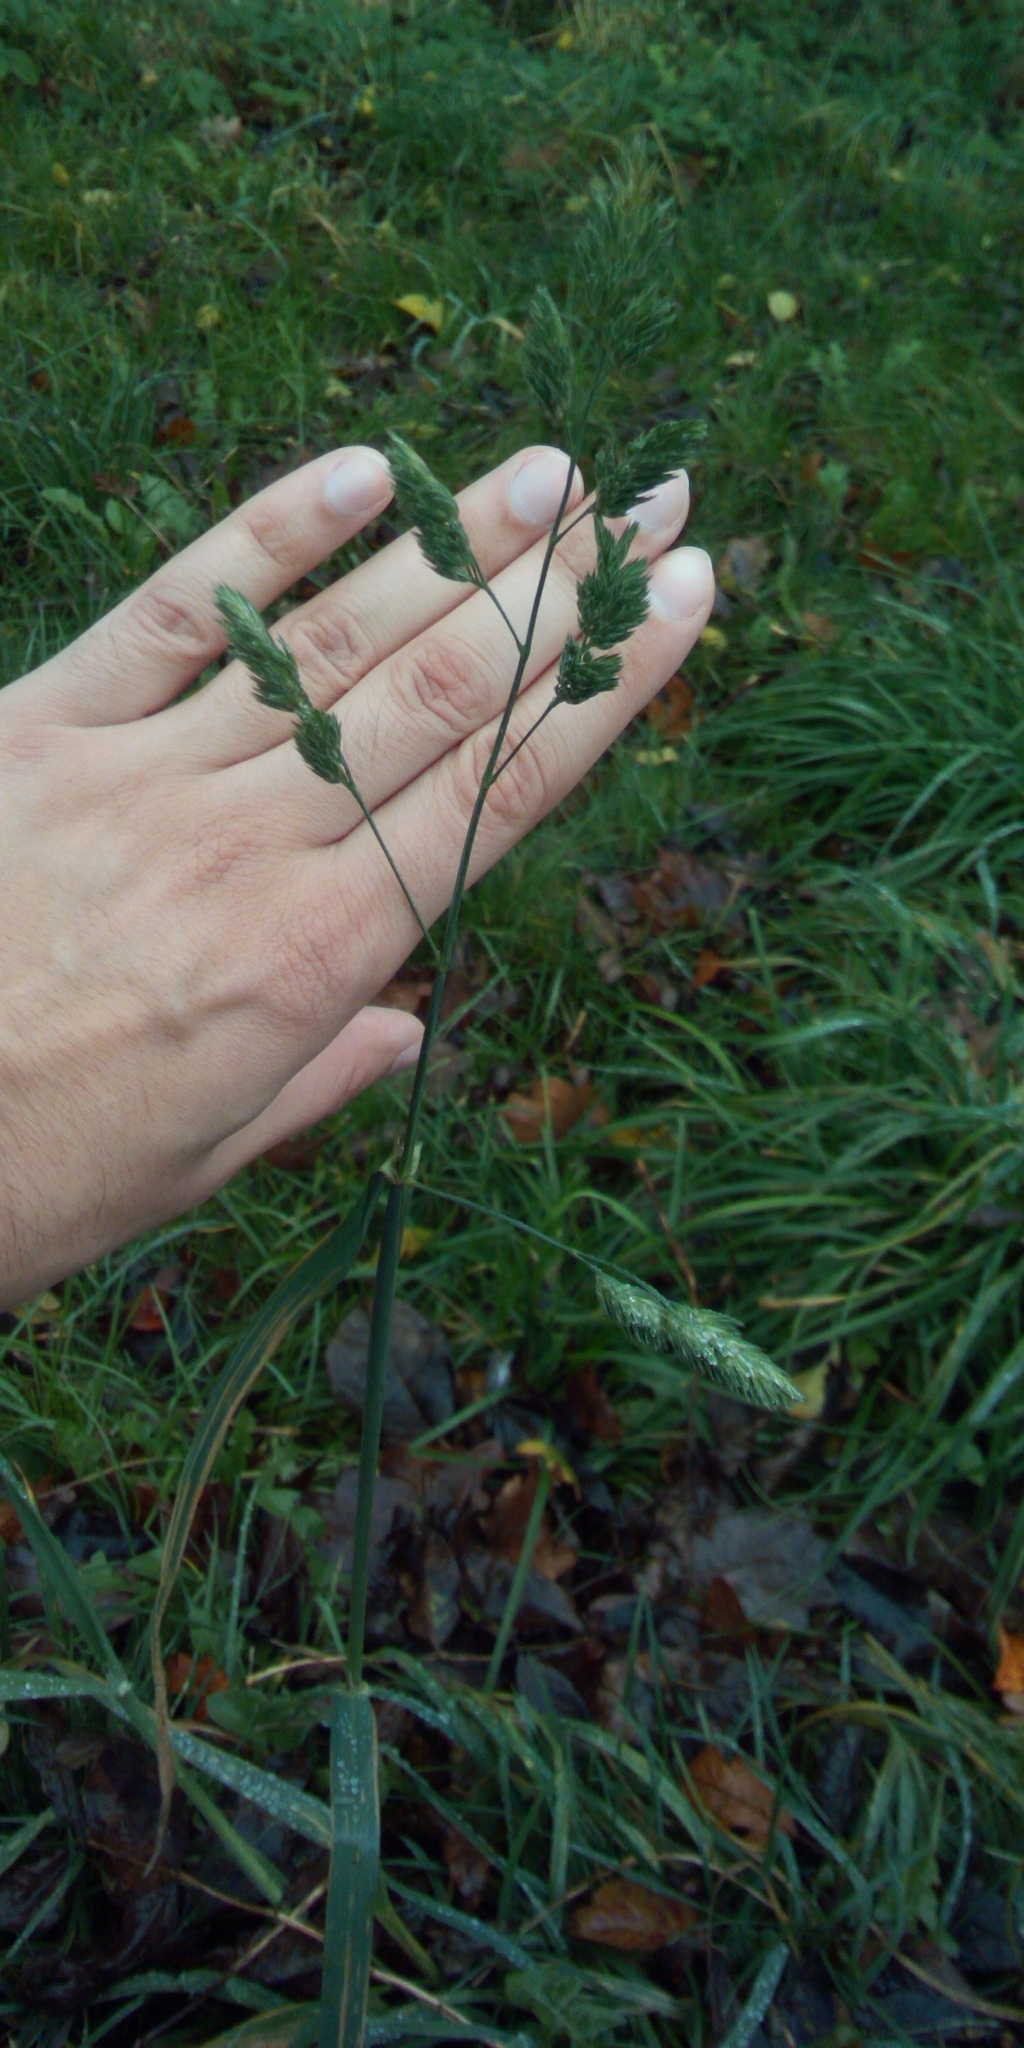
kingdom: Plantae
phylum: Tracheophyta
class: Liliopsida
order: Poales
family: Poaceae
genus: Dactylis
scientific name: Dactylis glomerata
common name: Orchardgrass
